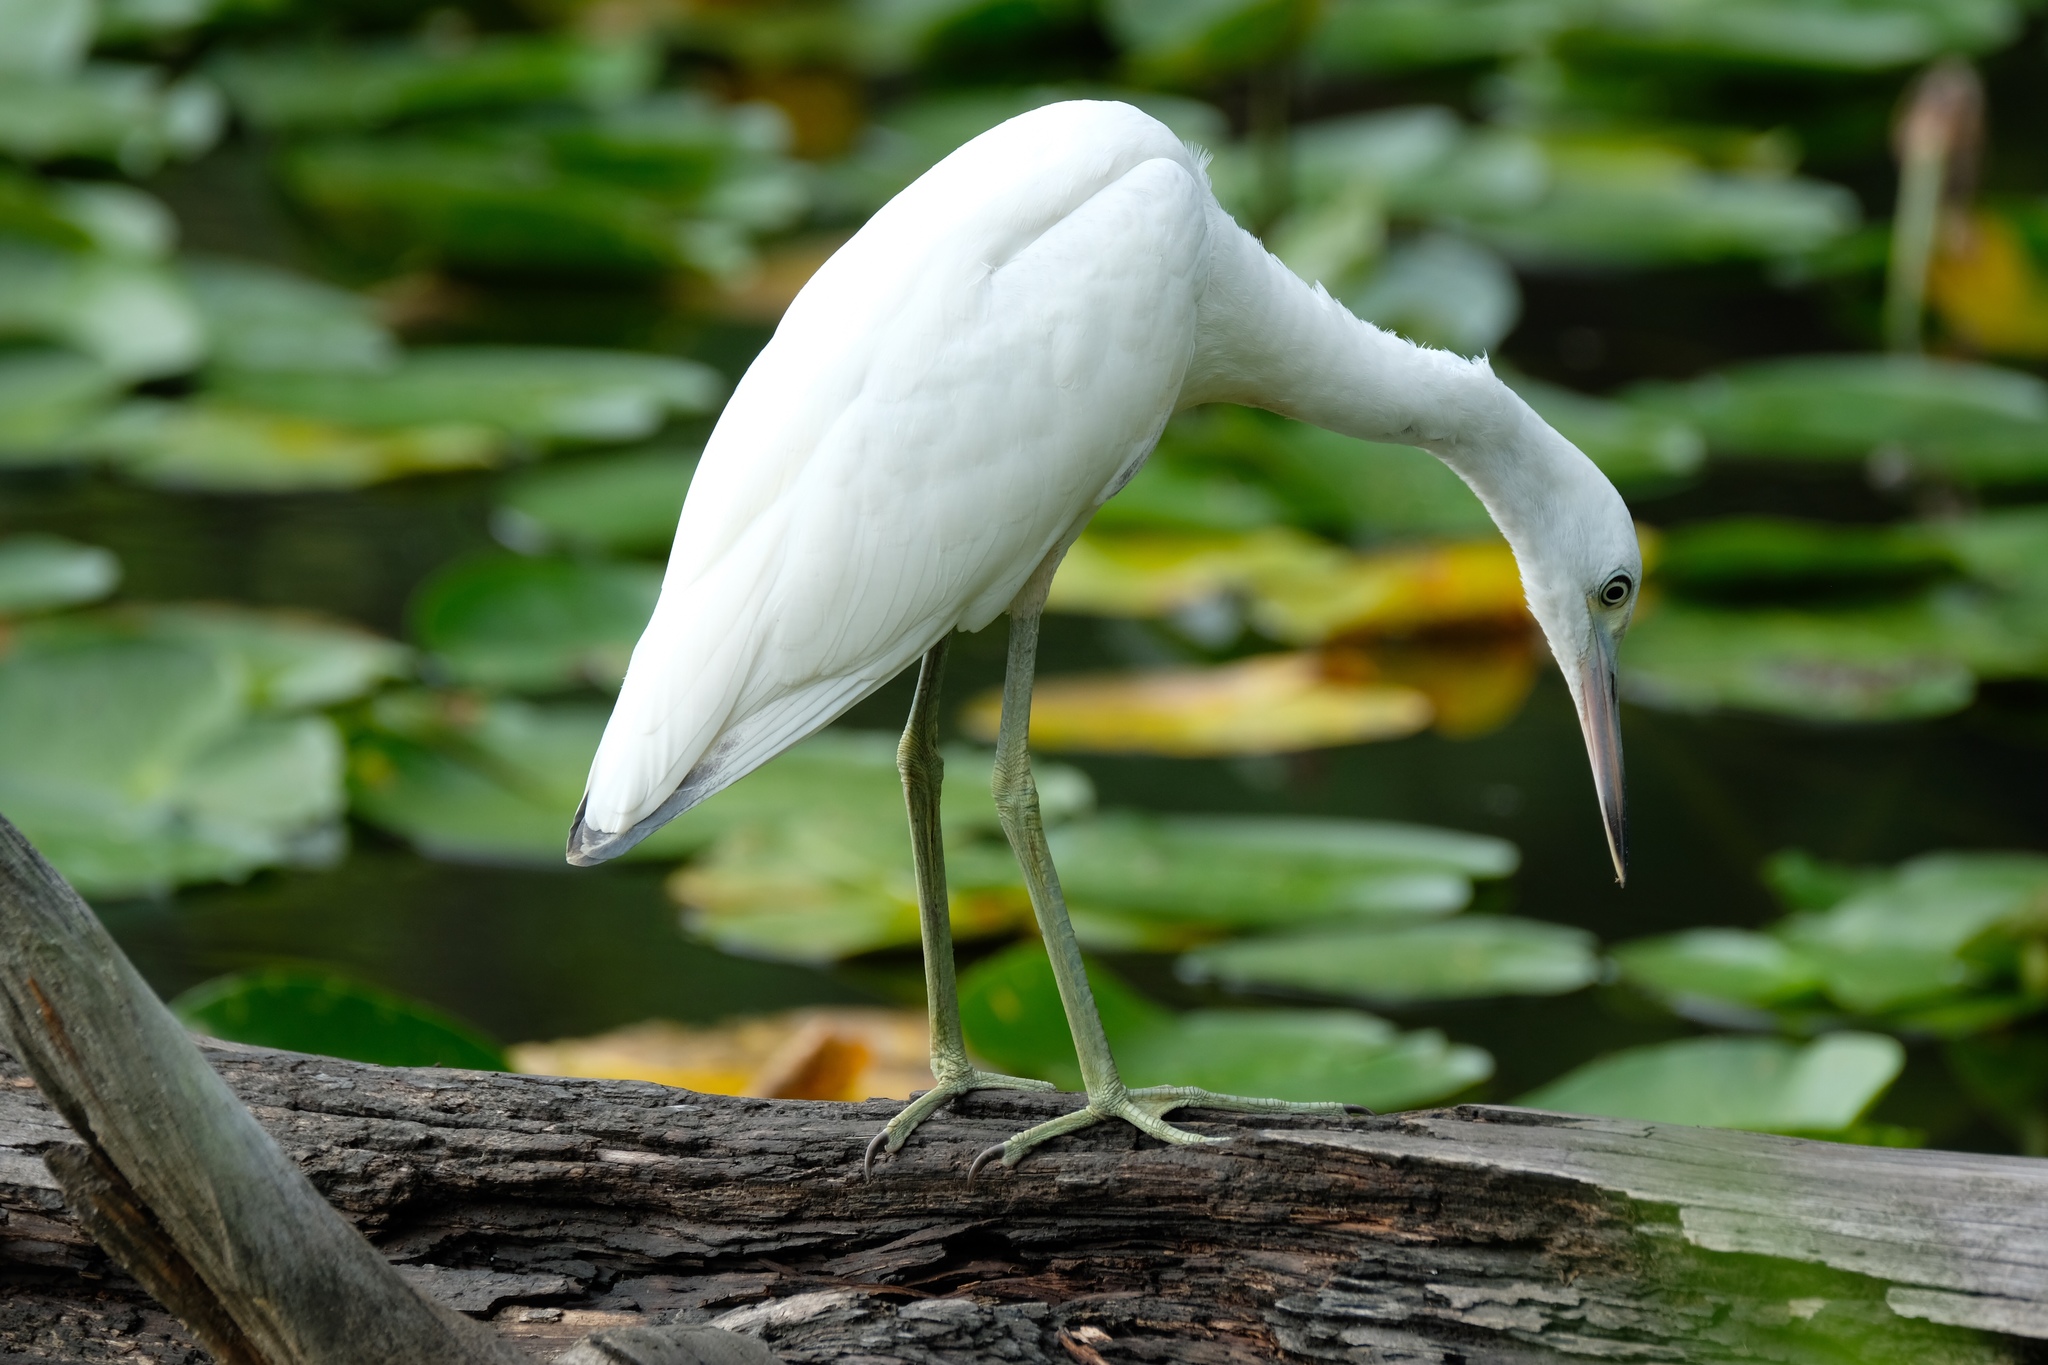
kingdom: Animalia
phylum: Chordata
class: Aves
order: Pelecaniformes
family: Ardeidae
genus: Egretta
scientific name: Egretta caerulea
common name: Little blue heron
